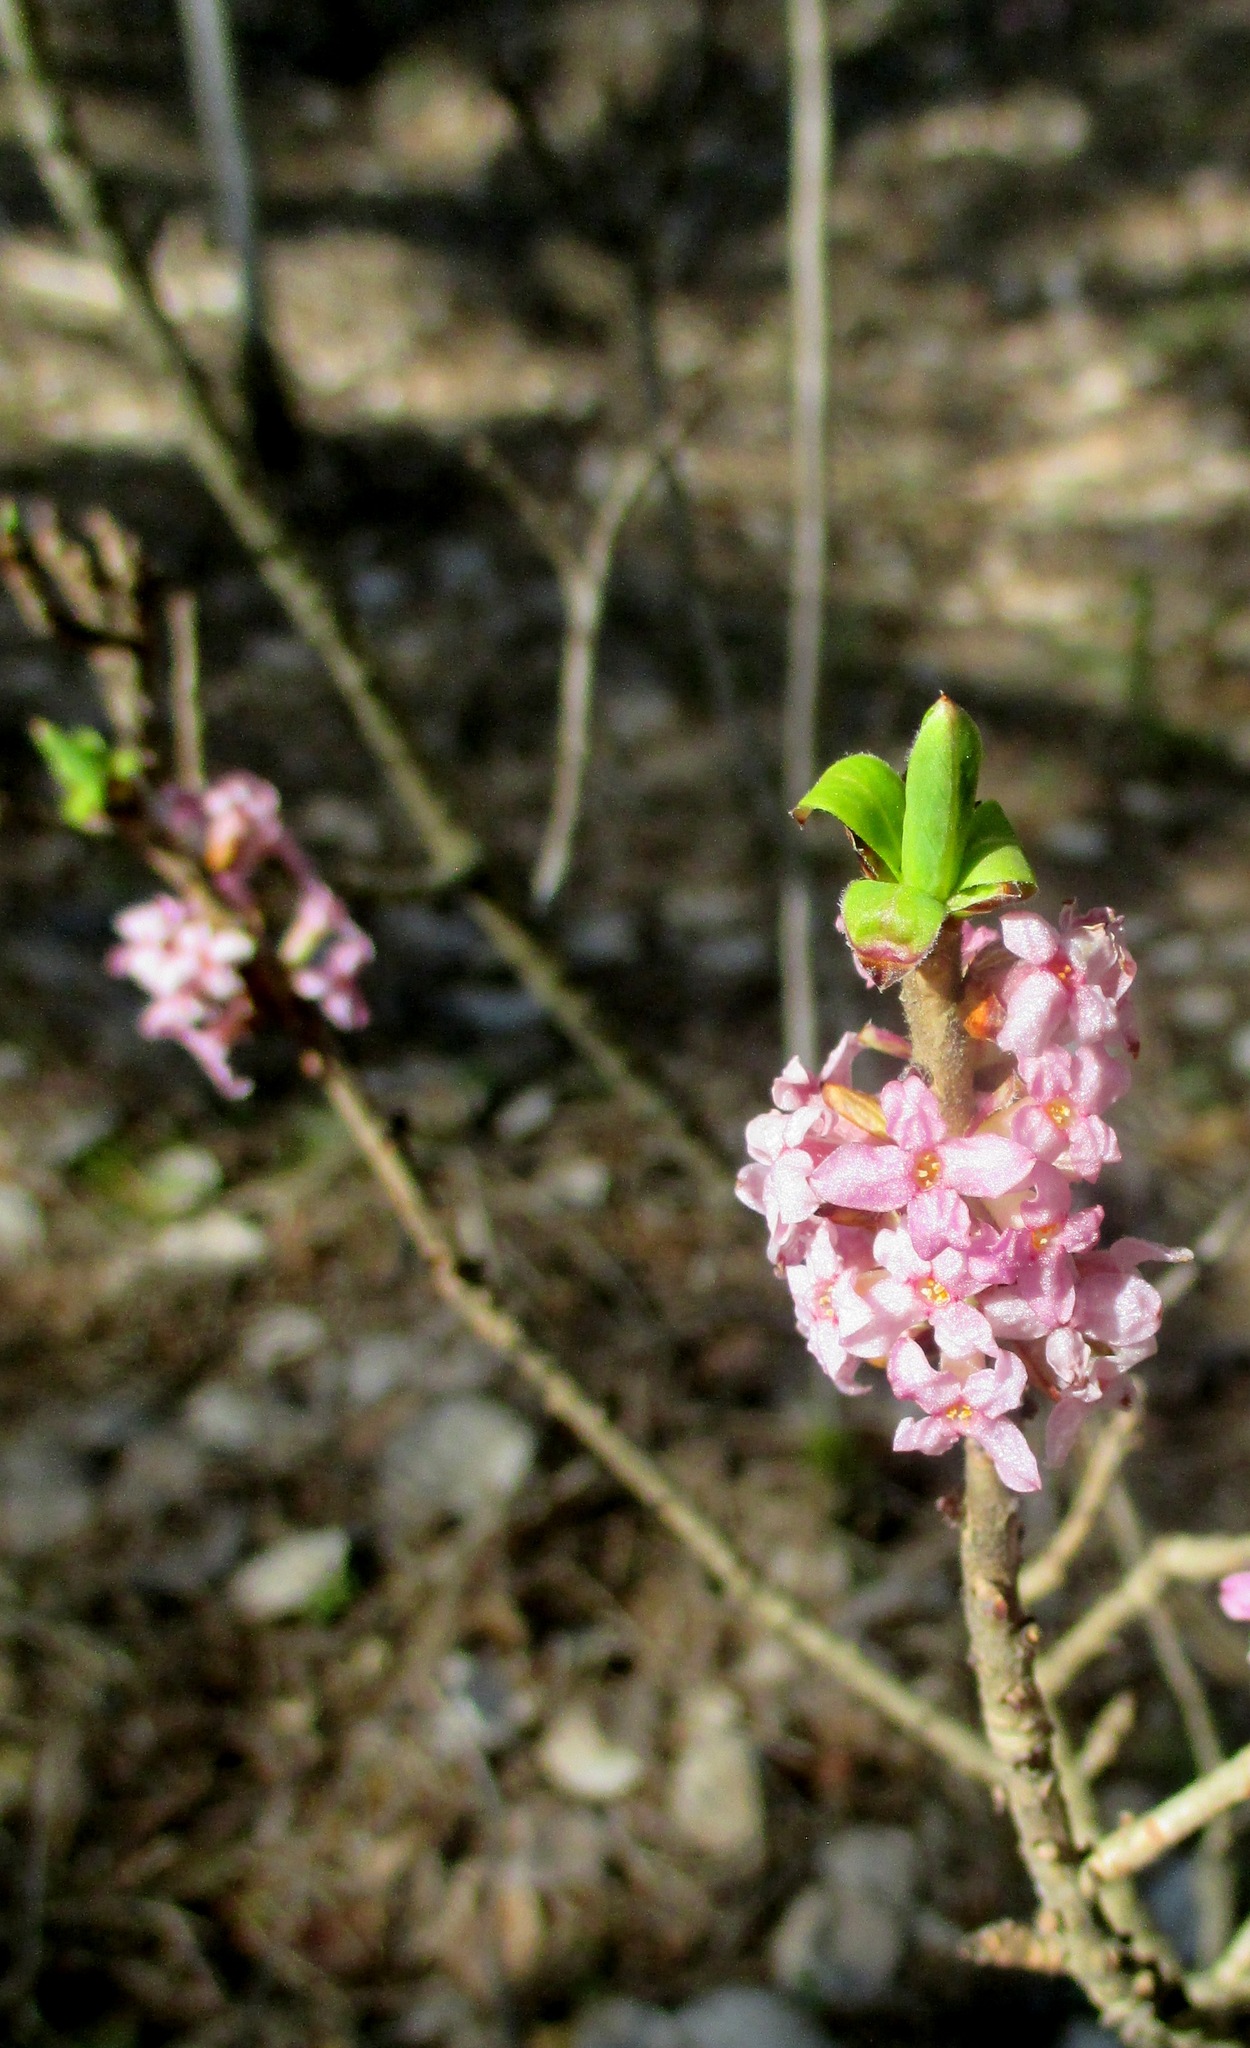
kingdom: Plantae
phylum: Tracheophyta
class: Magnoliopsida
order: Malvales
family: Thymelaeaceae
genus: Daphne
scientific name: Daphne mezereum
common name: Mezereon
